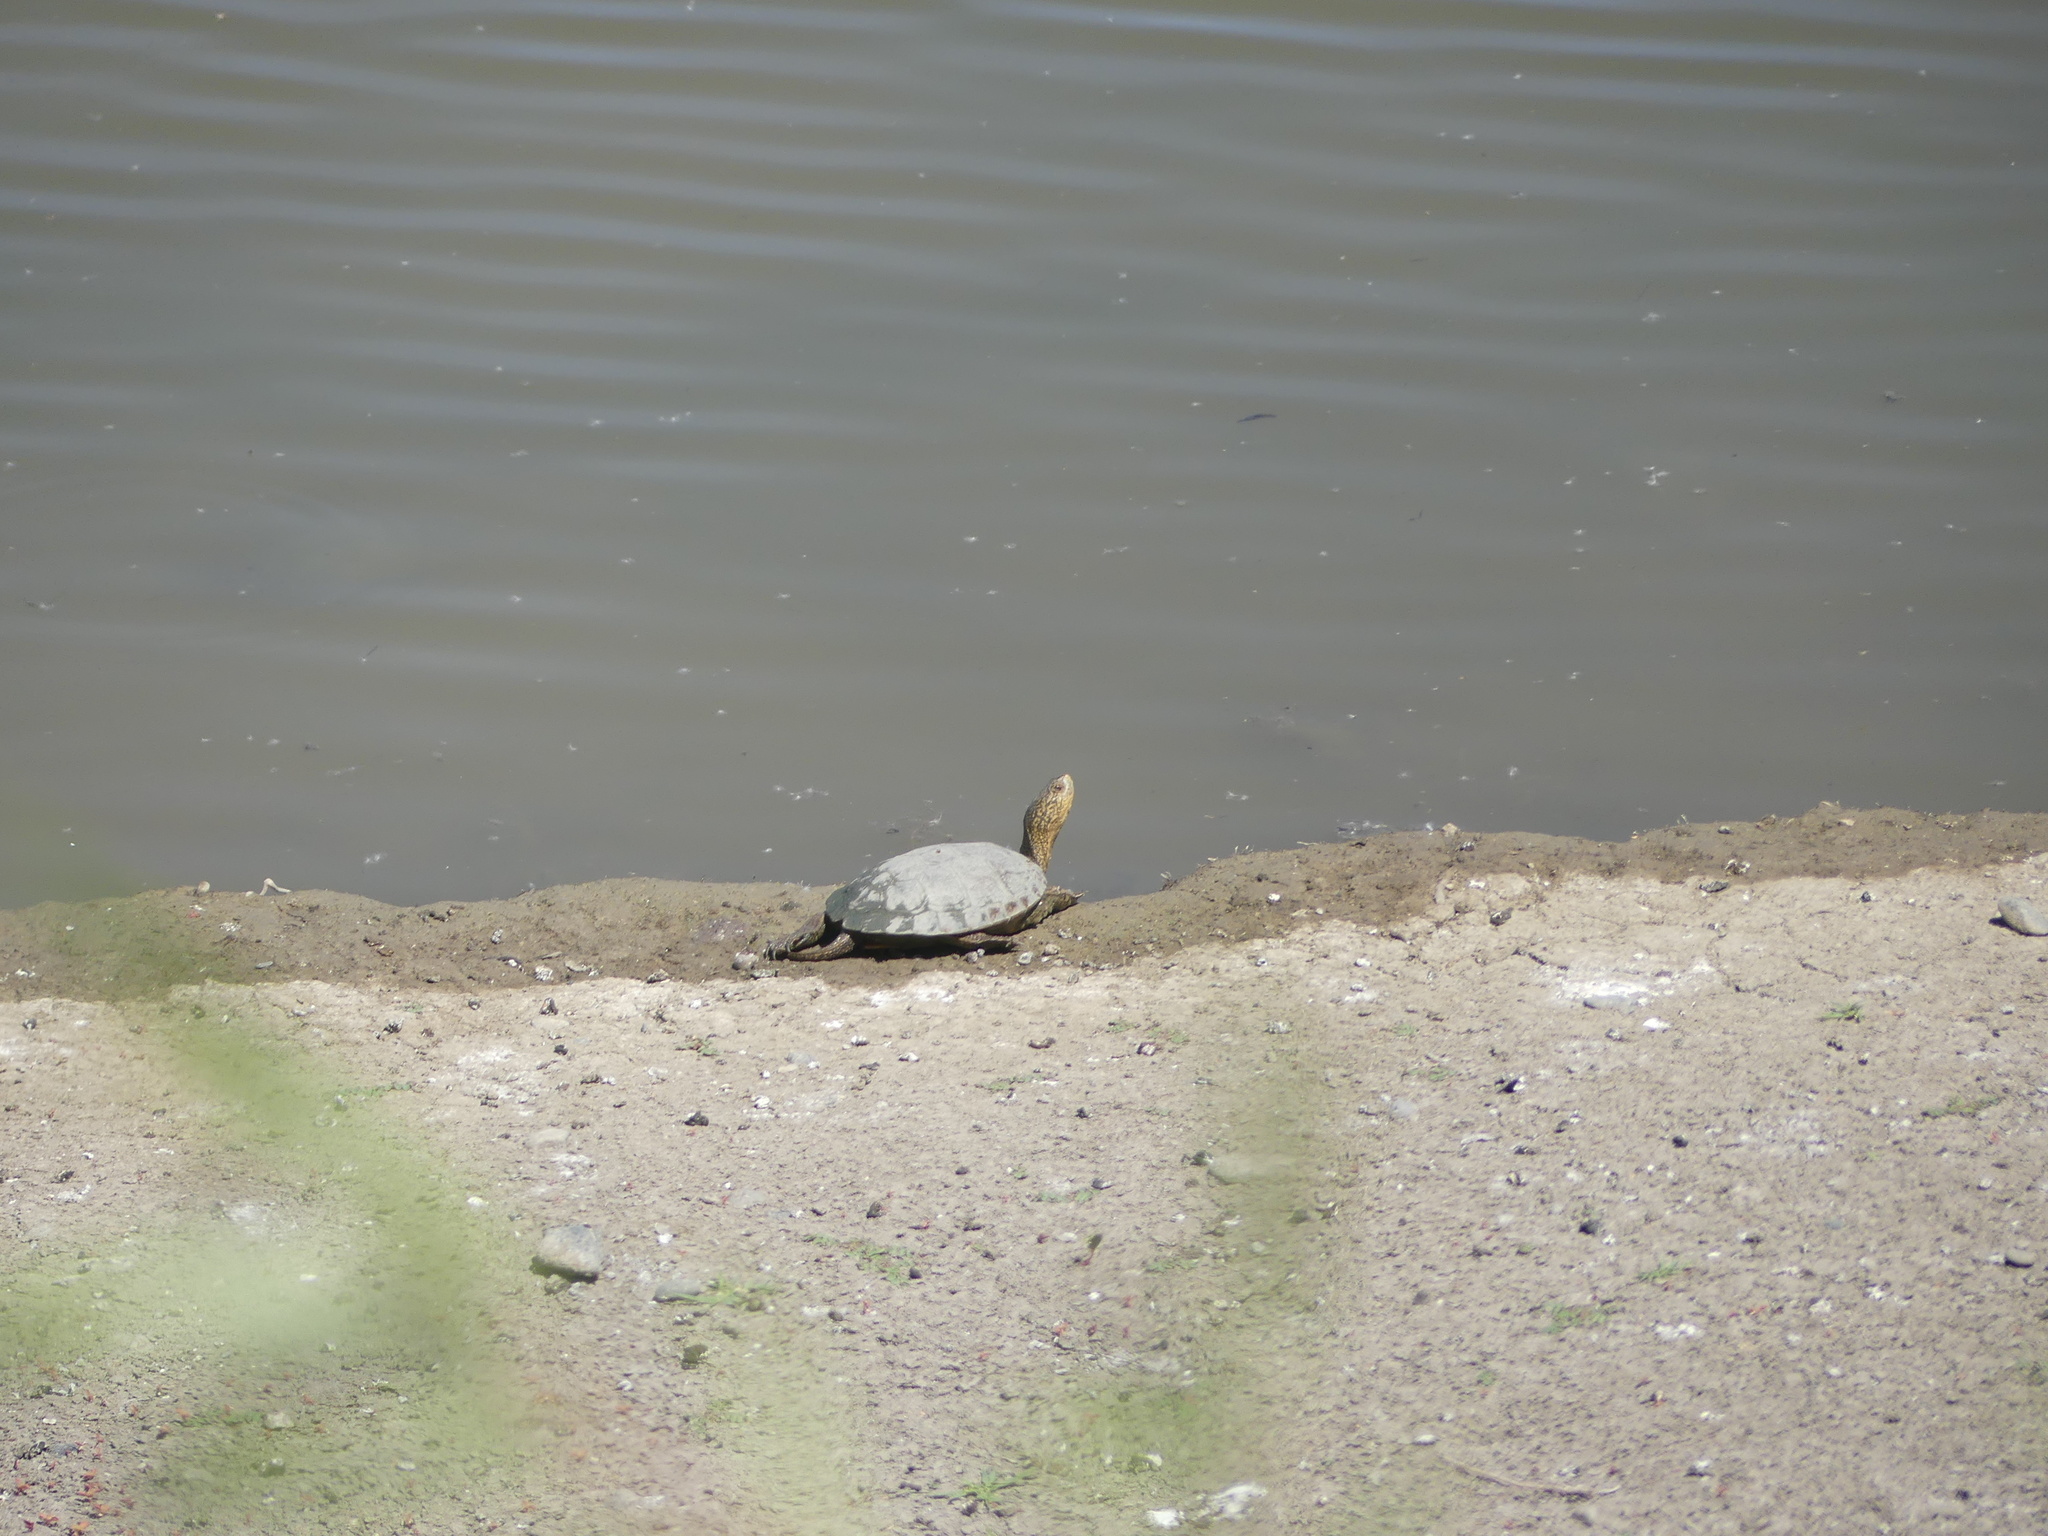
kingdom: Animalia
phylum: Chordata
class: Testudines
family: Emydidae
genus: Actinemys
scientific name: Actinemys marmorata
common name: Western pond turtle
